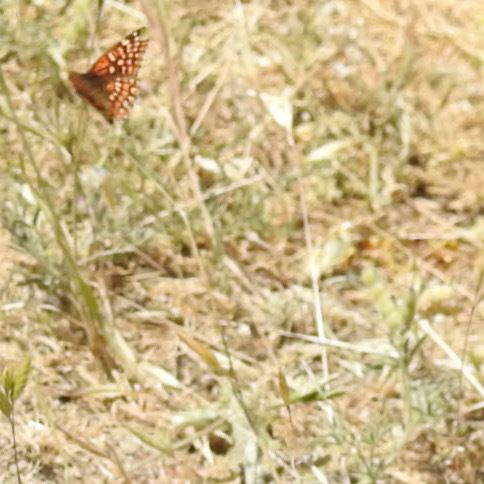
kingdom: Animalia
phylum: Arthropoda
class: Insecta
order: Lepidoptera
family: Nymphalidae
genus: Chlosyne
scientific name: Chlosyne palla
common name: Northern checkerspot
